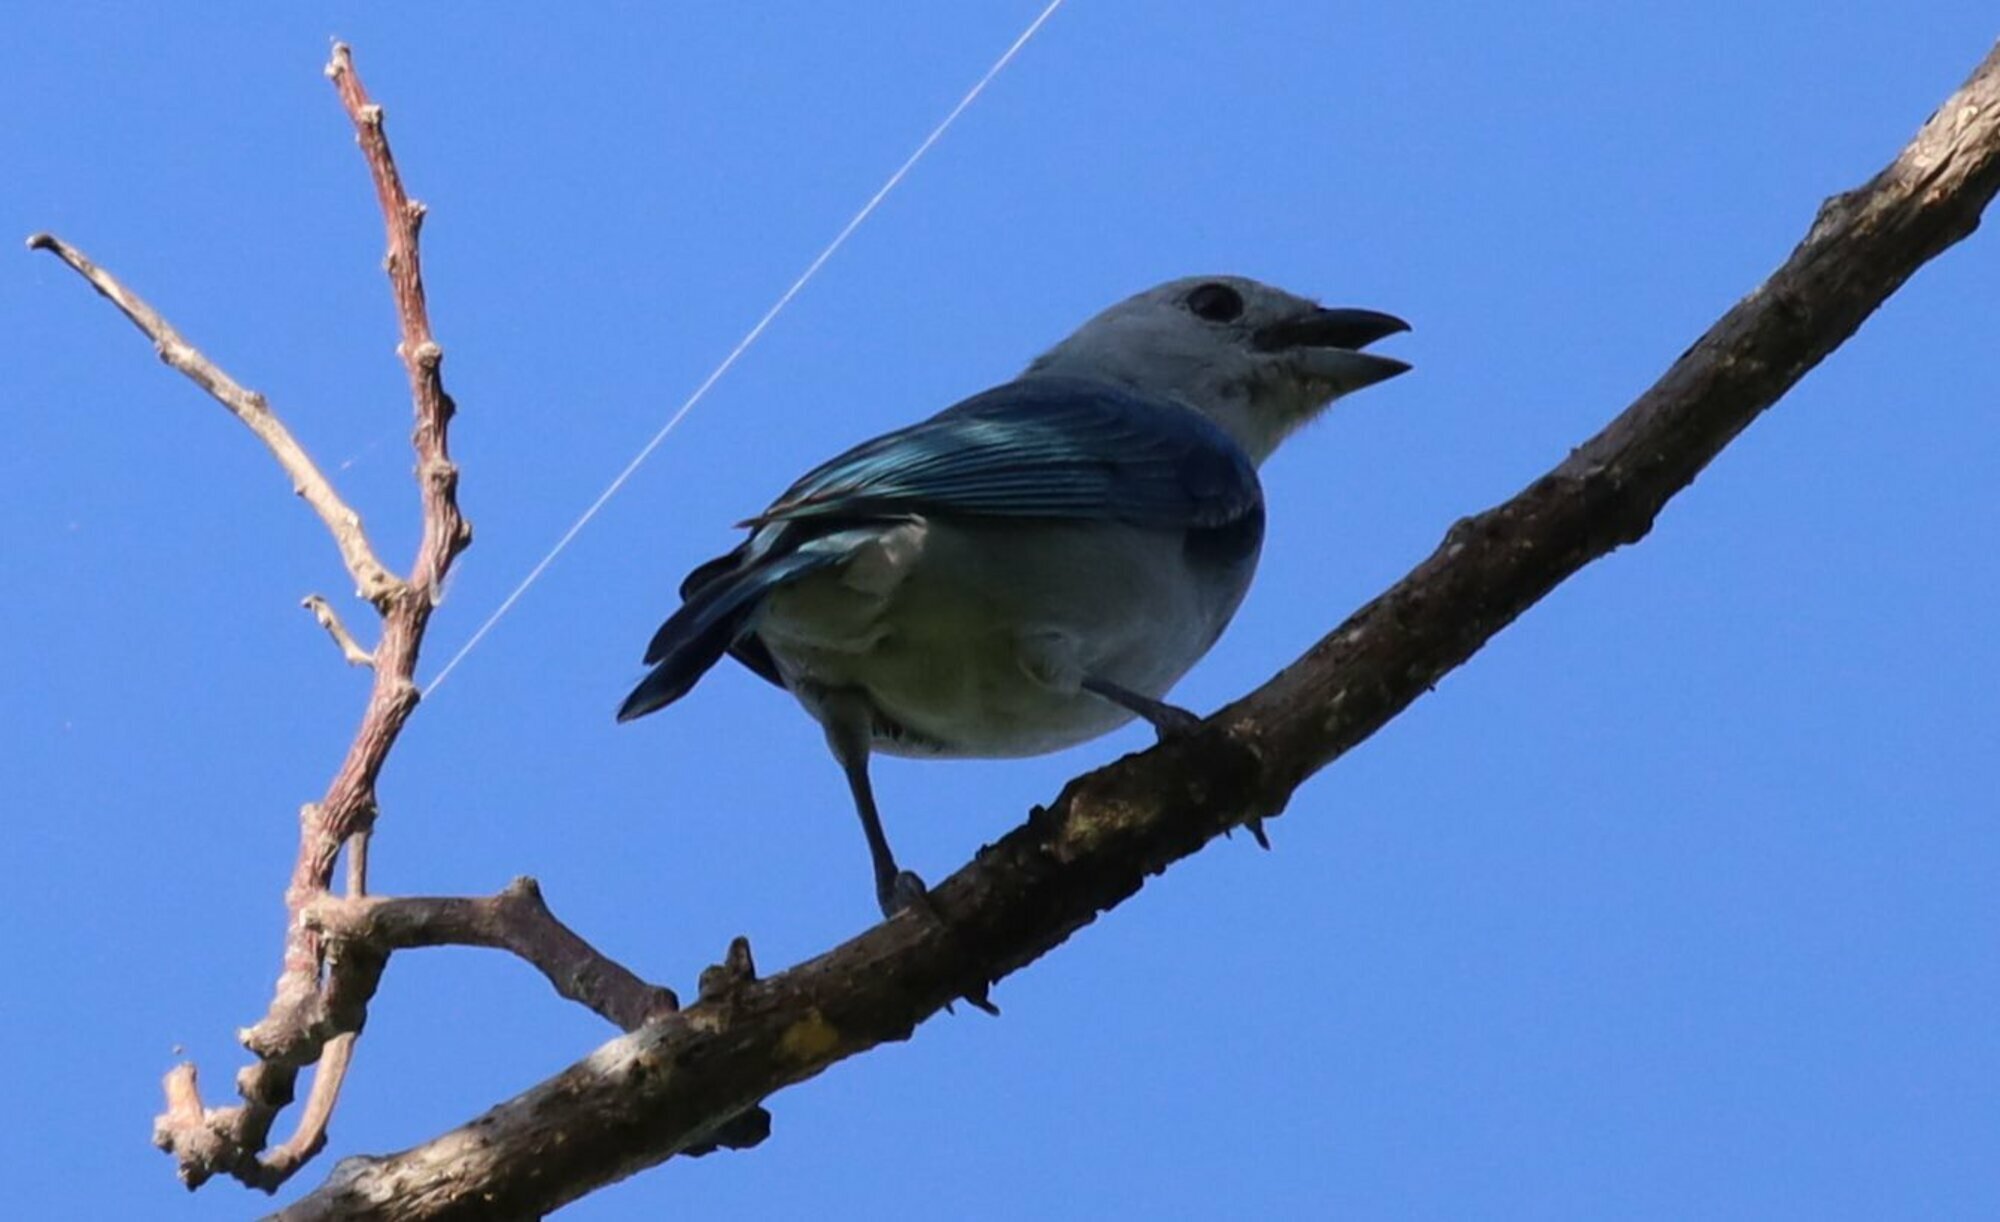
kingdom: Animalia
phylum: Chordata
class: Aves
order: Passeriformes
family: Thraupidae
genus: Thraupis
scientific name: Thraupis episcopus
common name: Blue-grey tanager
